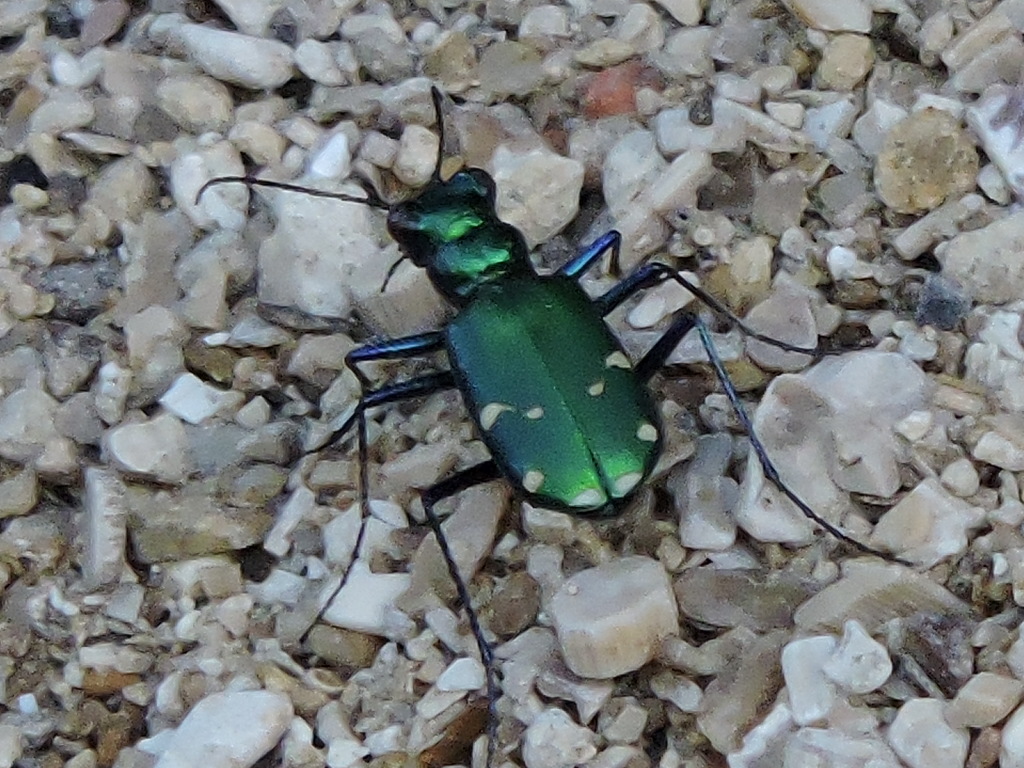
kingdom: Animalia
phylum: Arthropoda
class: Insecta
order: Coleoptera
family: Carabidae
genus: Cicindela
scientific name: Cicindela sexguttata
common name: Six-spotted tiger beetle
